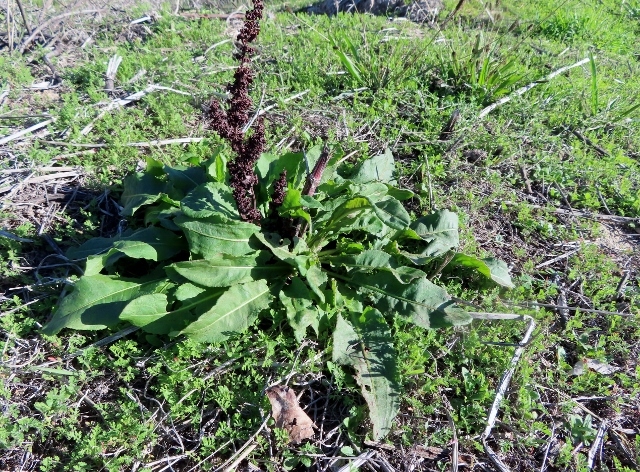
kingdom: Plantae
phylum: Tracheophyta
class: Magnoliopsida
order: Caryophyllales
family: Polygonaceae
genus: Rumex
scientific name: Rumex crispus
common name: Curled dock
